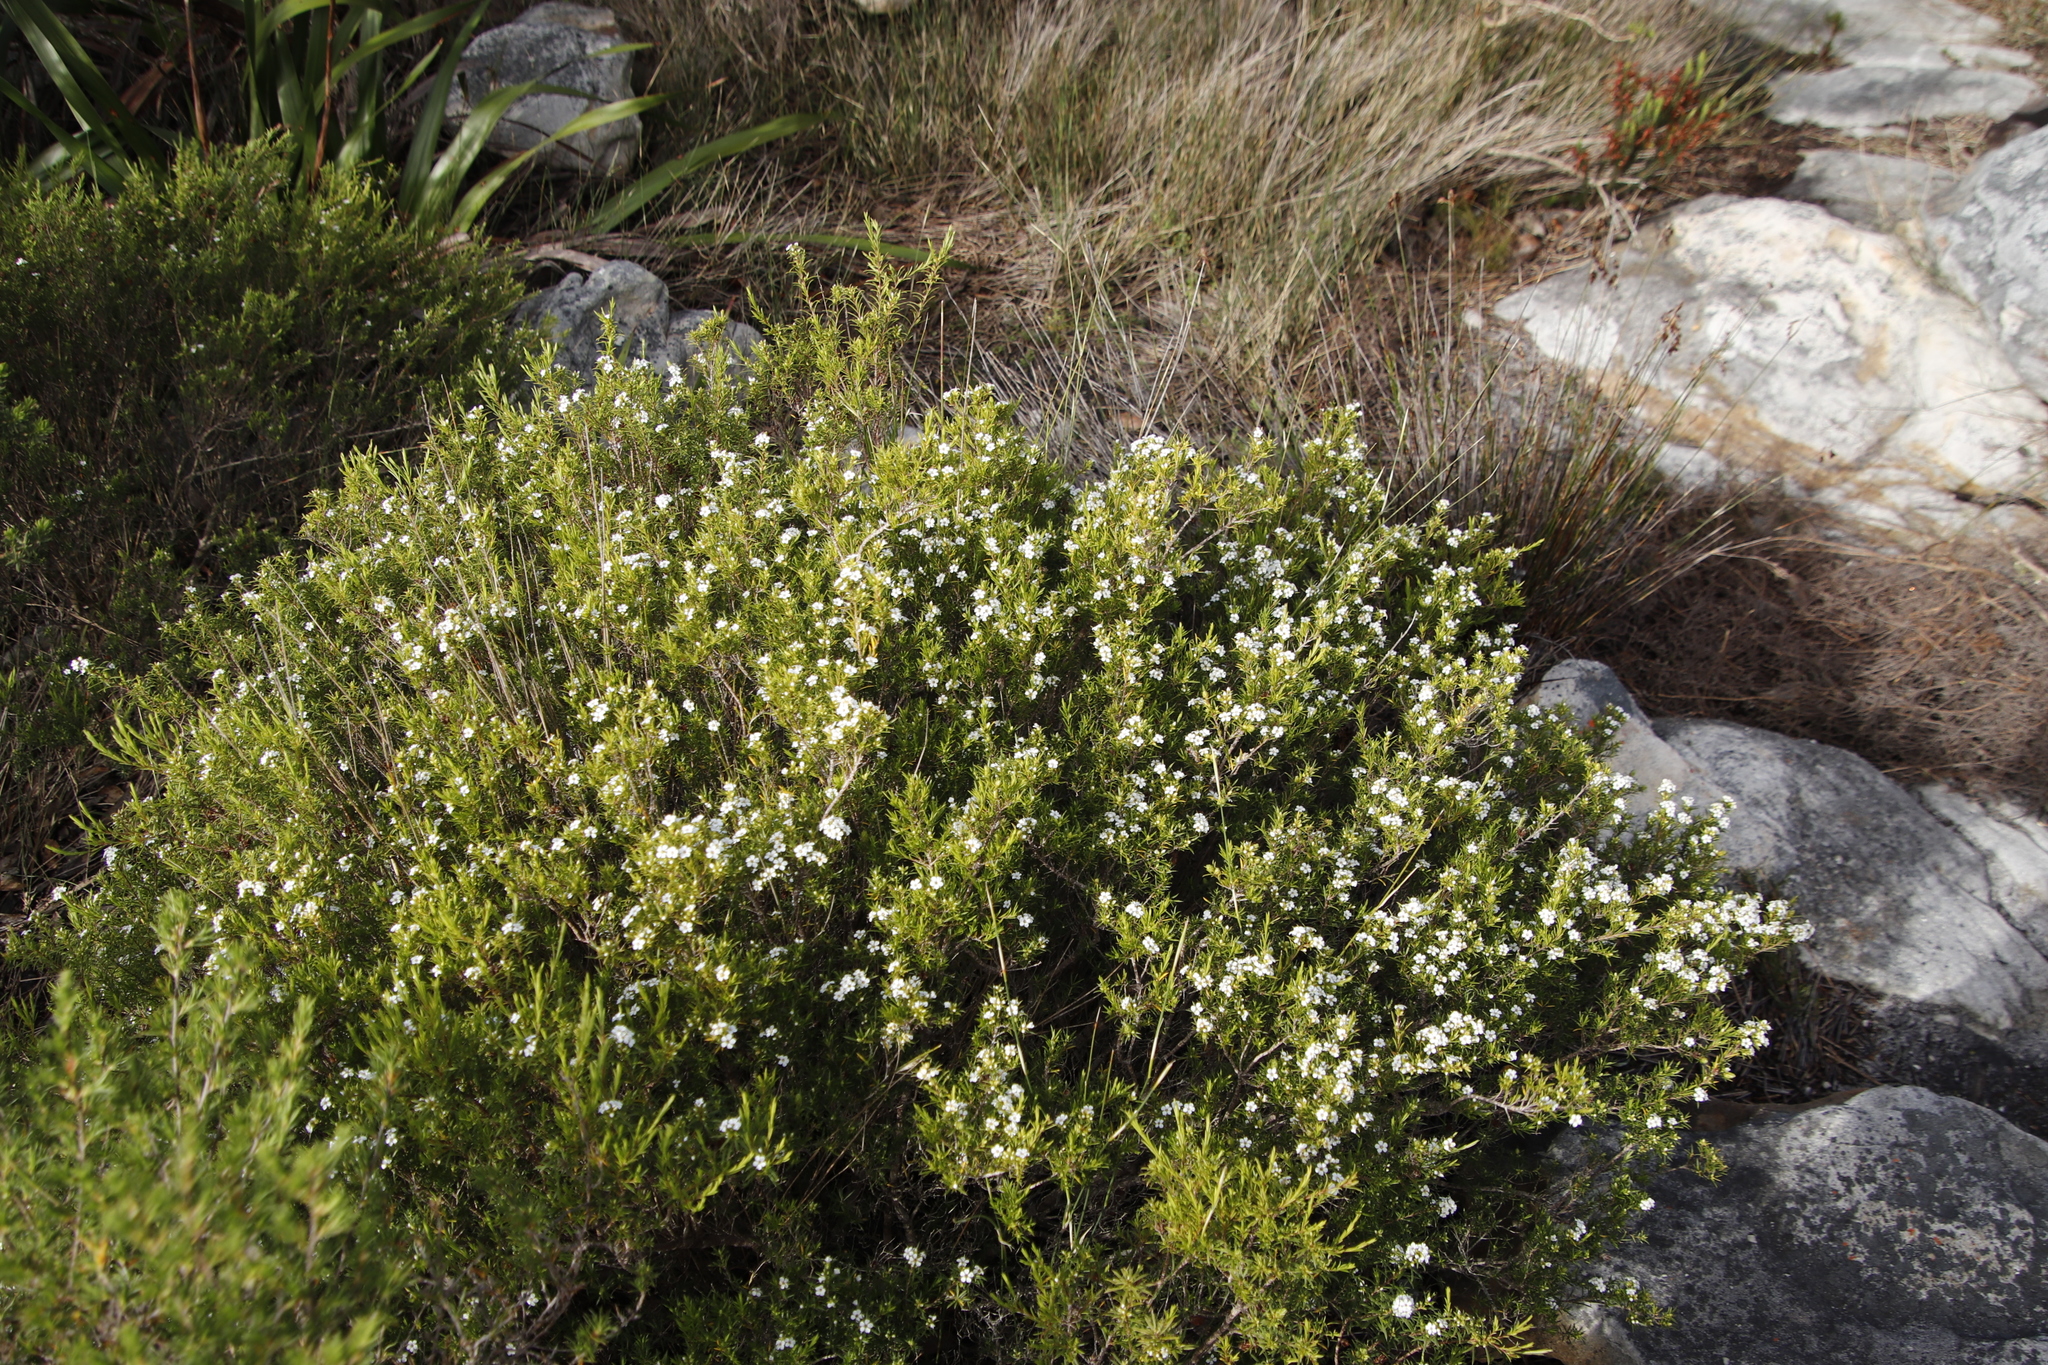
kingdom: Plantae
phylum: Tracheophyta
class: Magnoliopsida
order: Sapindales
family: Rutaceae
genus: Coleonema
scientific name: Coleonema album
